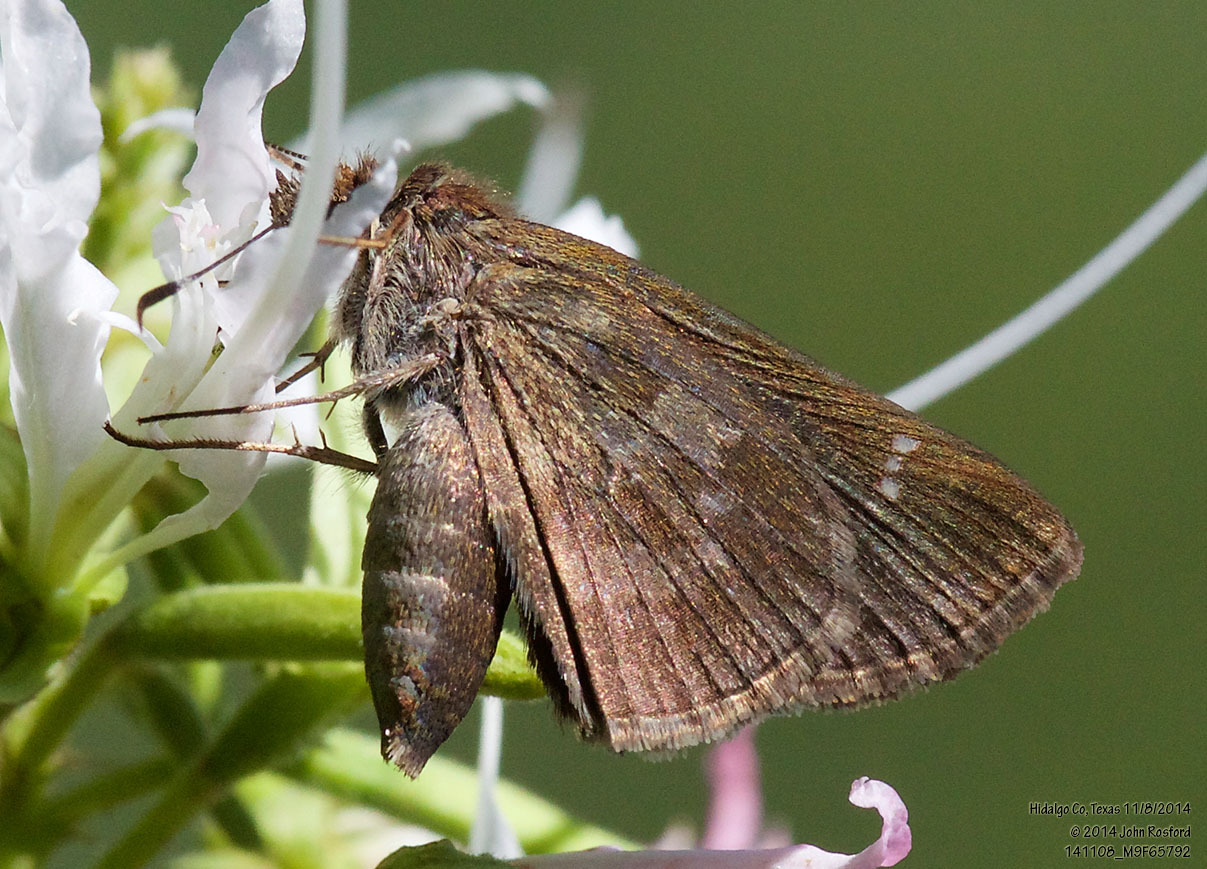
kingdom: Animalia
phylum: Arthropoda
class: Insecta
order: Lepidoptera
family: Hesperiidae
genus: Cymaenes
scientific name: Cymaenes
